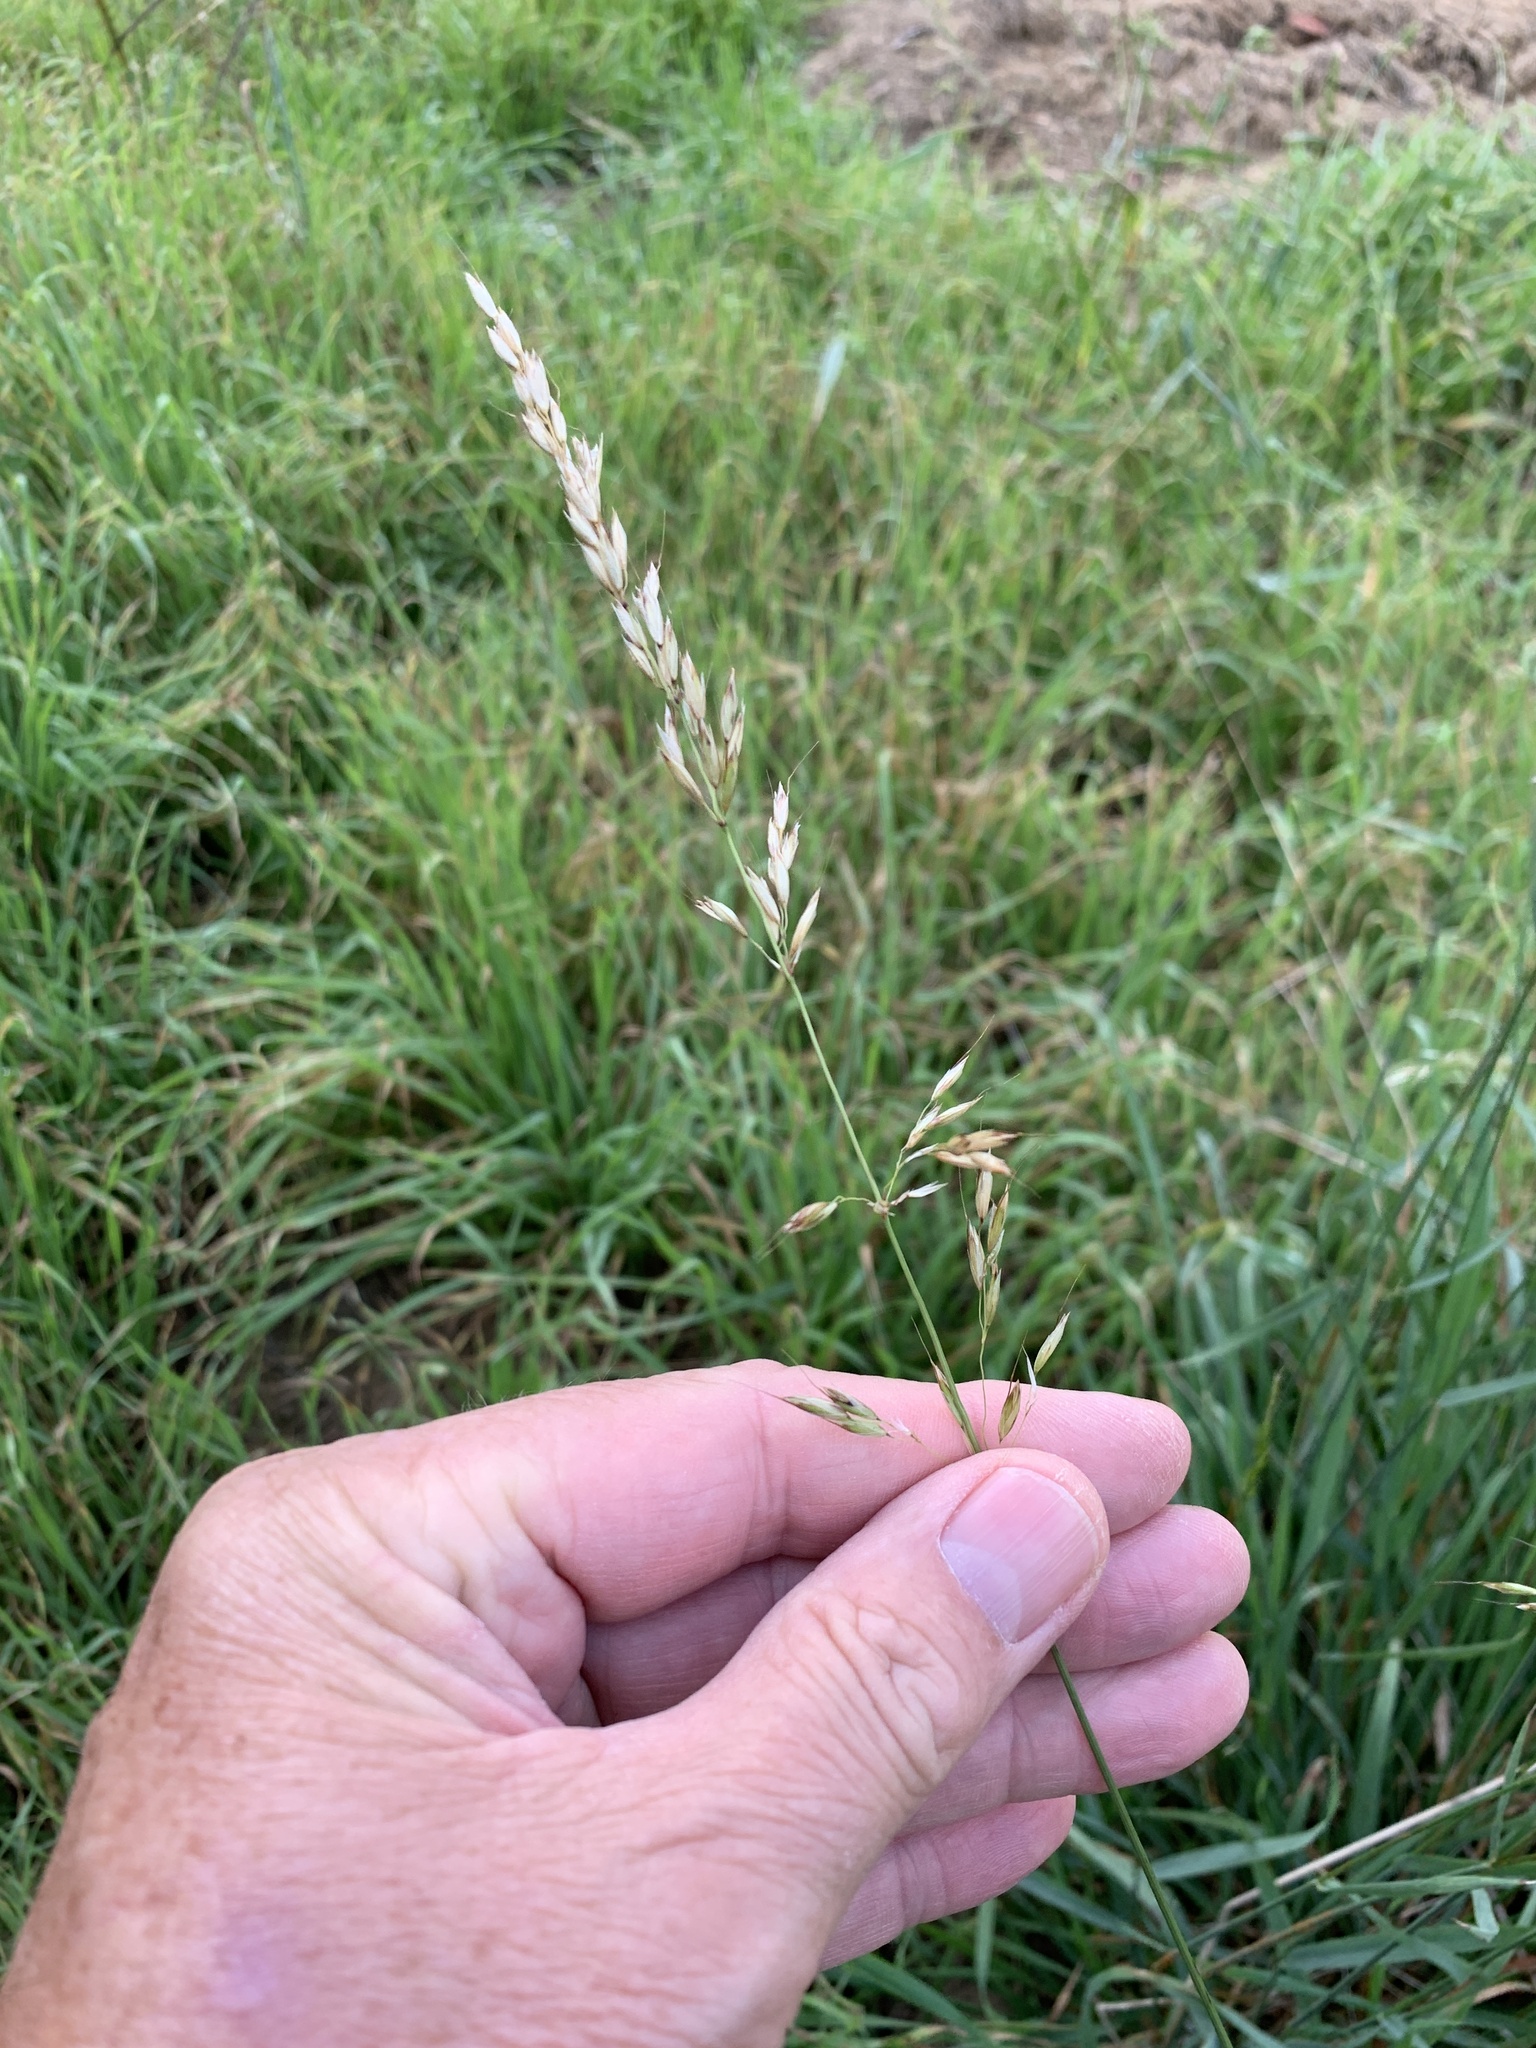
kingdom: Plantae
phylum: Tracheophyta
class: Liliopsida
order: Poales
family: Poaceae
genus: Arrhenatherum
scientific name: Arrhenatherum elatius
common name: Tall oatgrass
